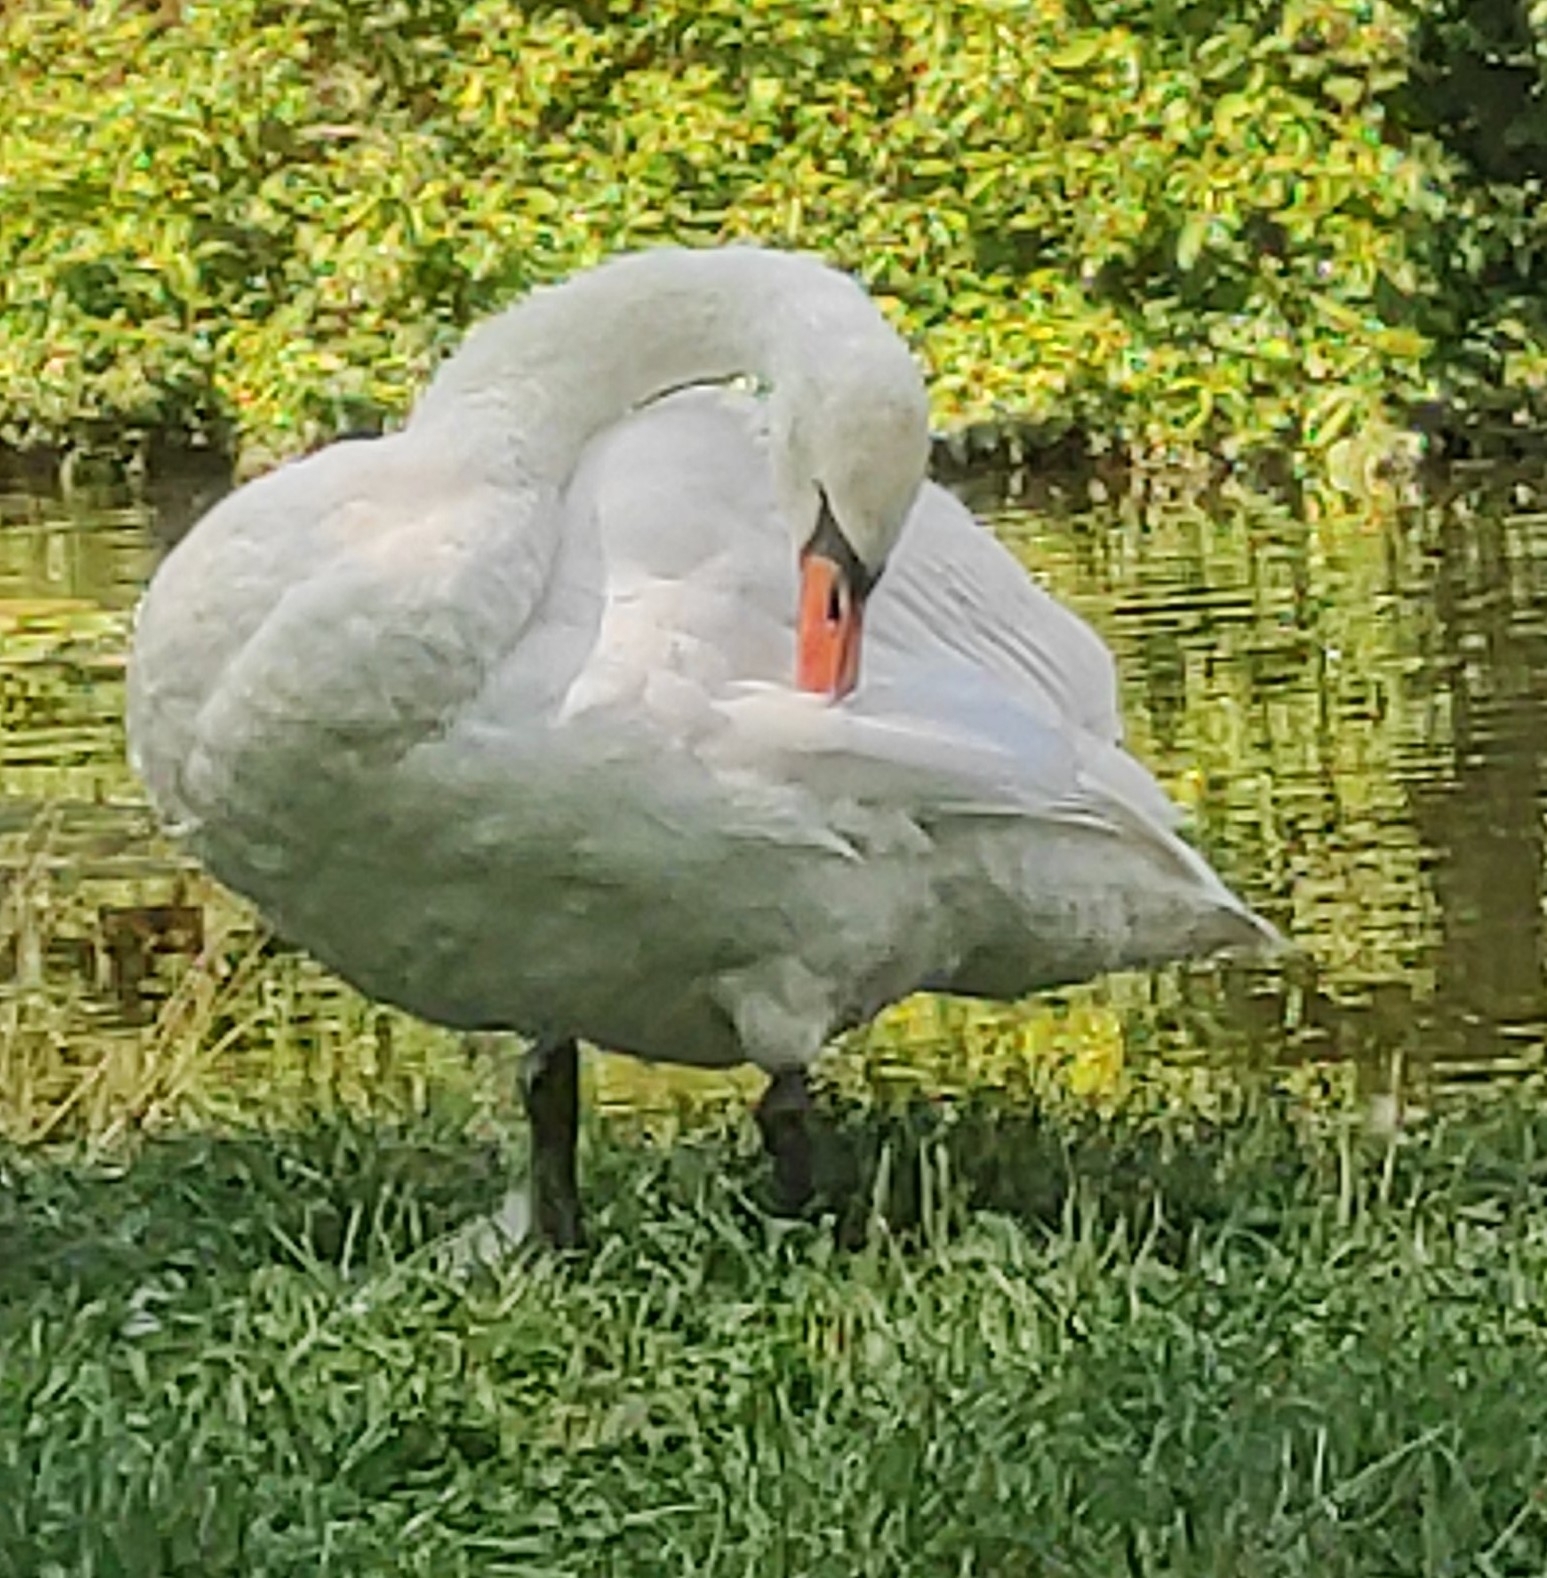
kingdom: Animalia
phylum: Chordata
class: Aves
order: Anseriformes
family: Anatidae
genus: Cygnus
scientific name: Cygnus olor
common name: Mute swan
